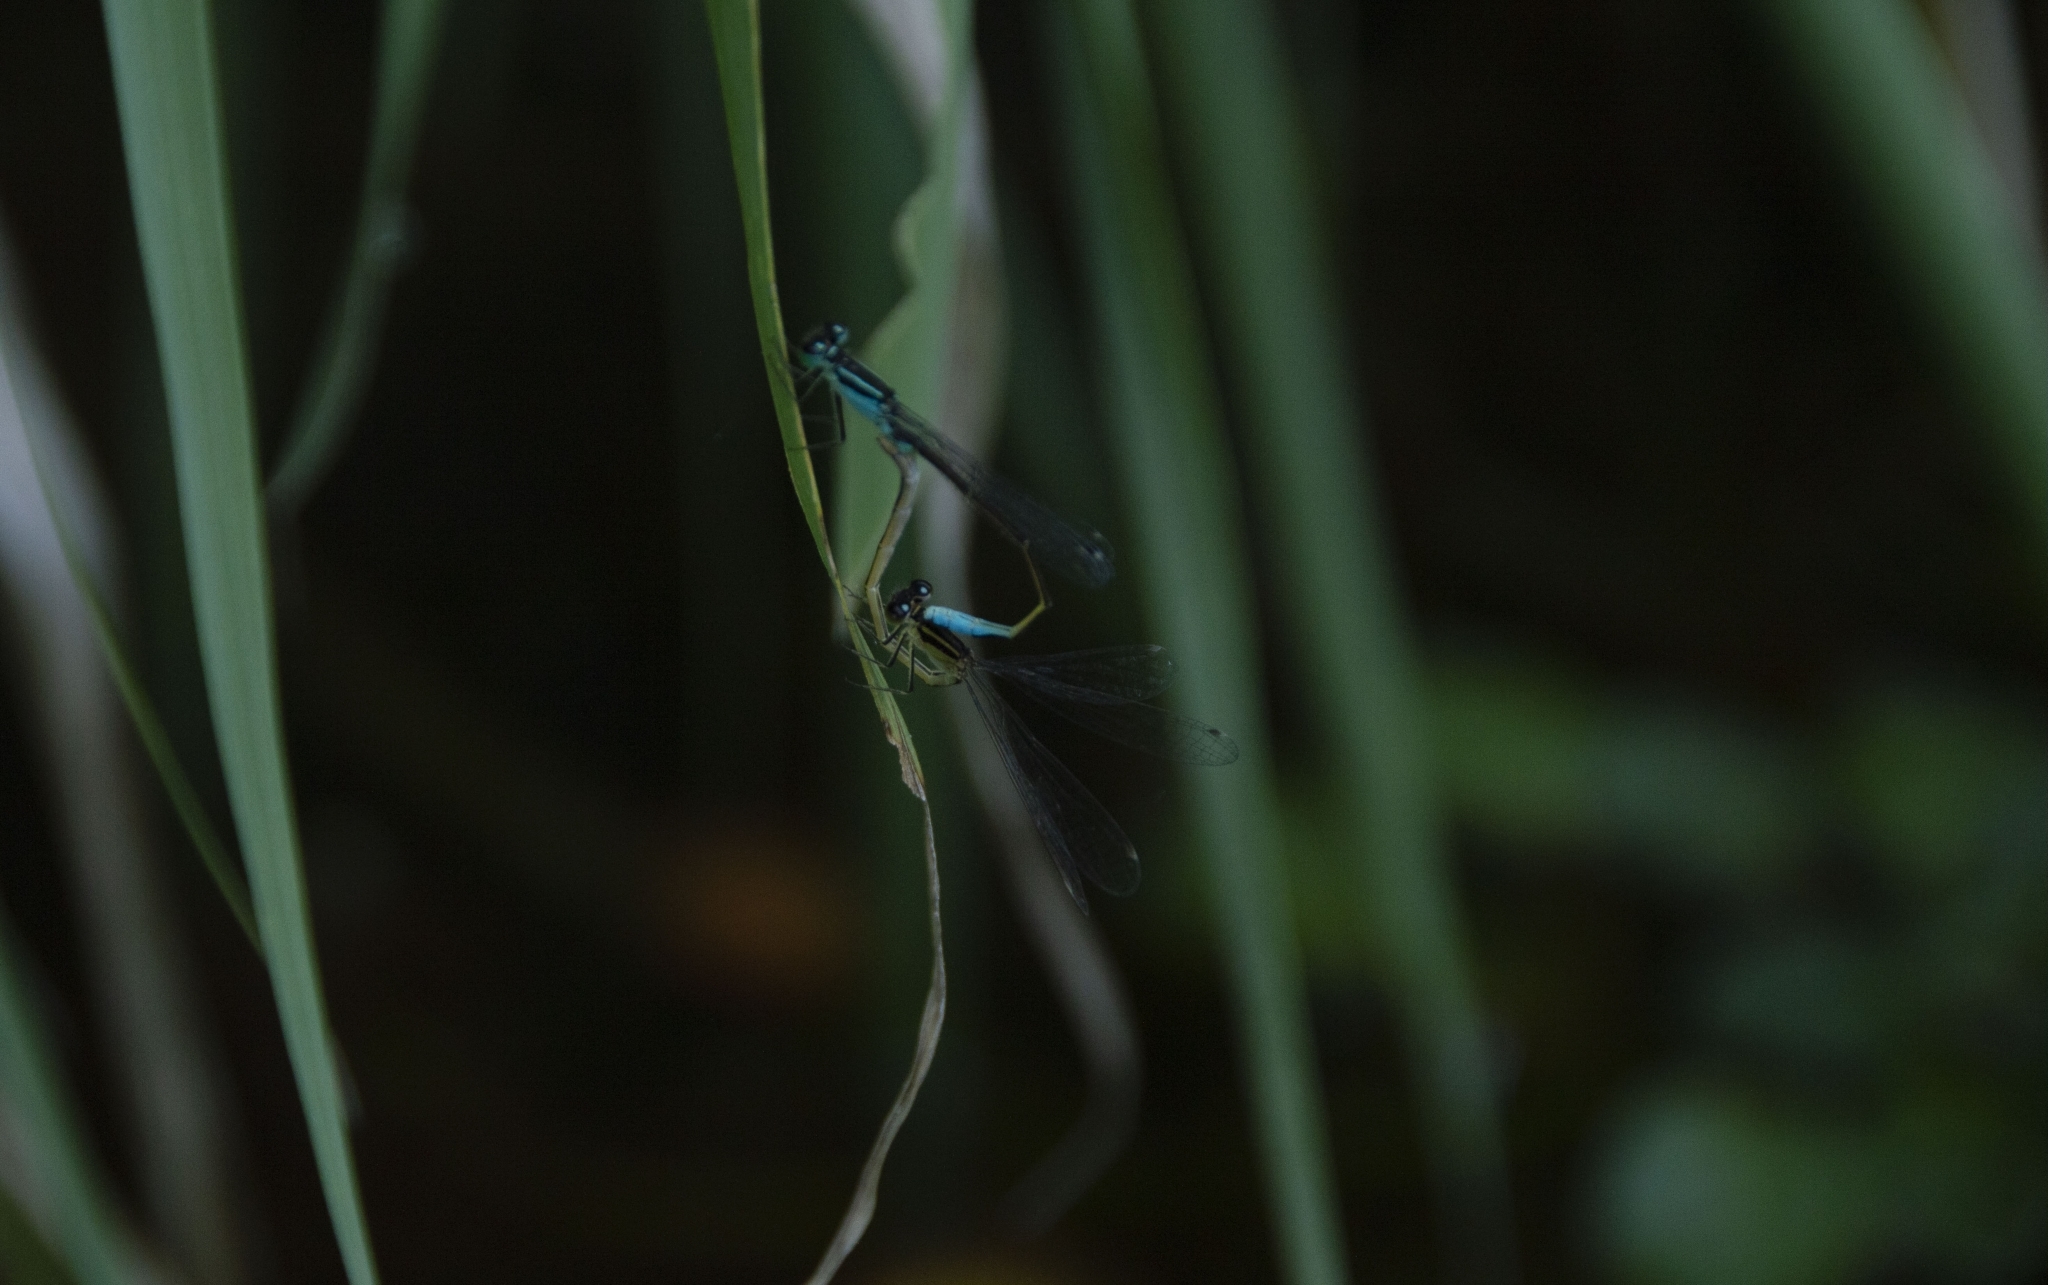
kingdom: Animalia
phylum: Arthropoda
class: Insecta
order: Odonata
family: Coenagrionidae
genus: Ischnura
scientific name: Ischnura elegans
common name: Blue-tailed damselfly
